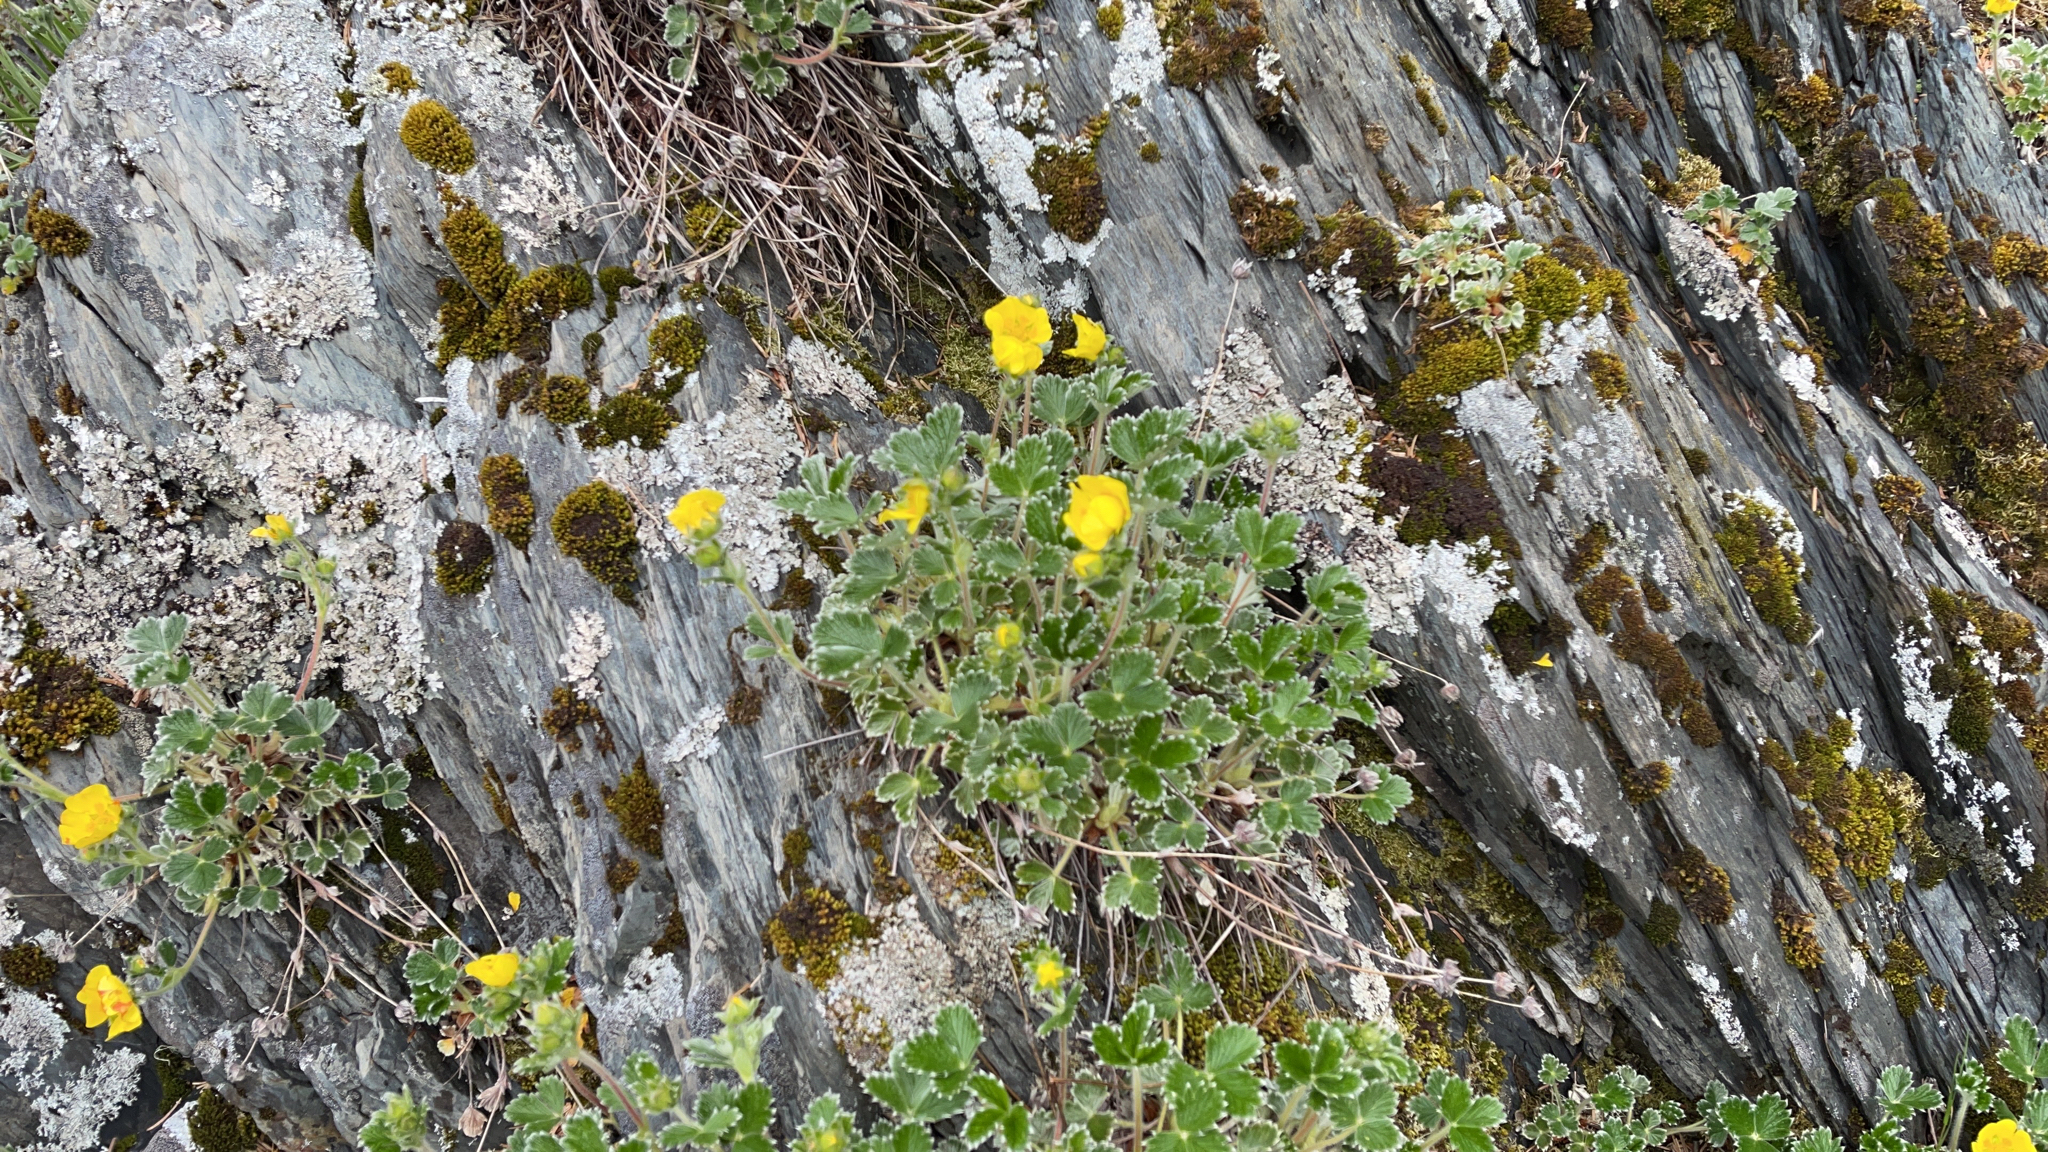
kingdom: Plantae
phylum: Tracheophyta
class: Magnoliopsida
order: Rosales
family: Rosaceae
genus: Potentilla
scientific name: Potentilla villosa
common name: Northern cinquefoil
